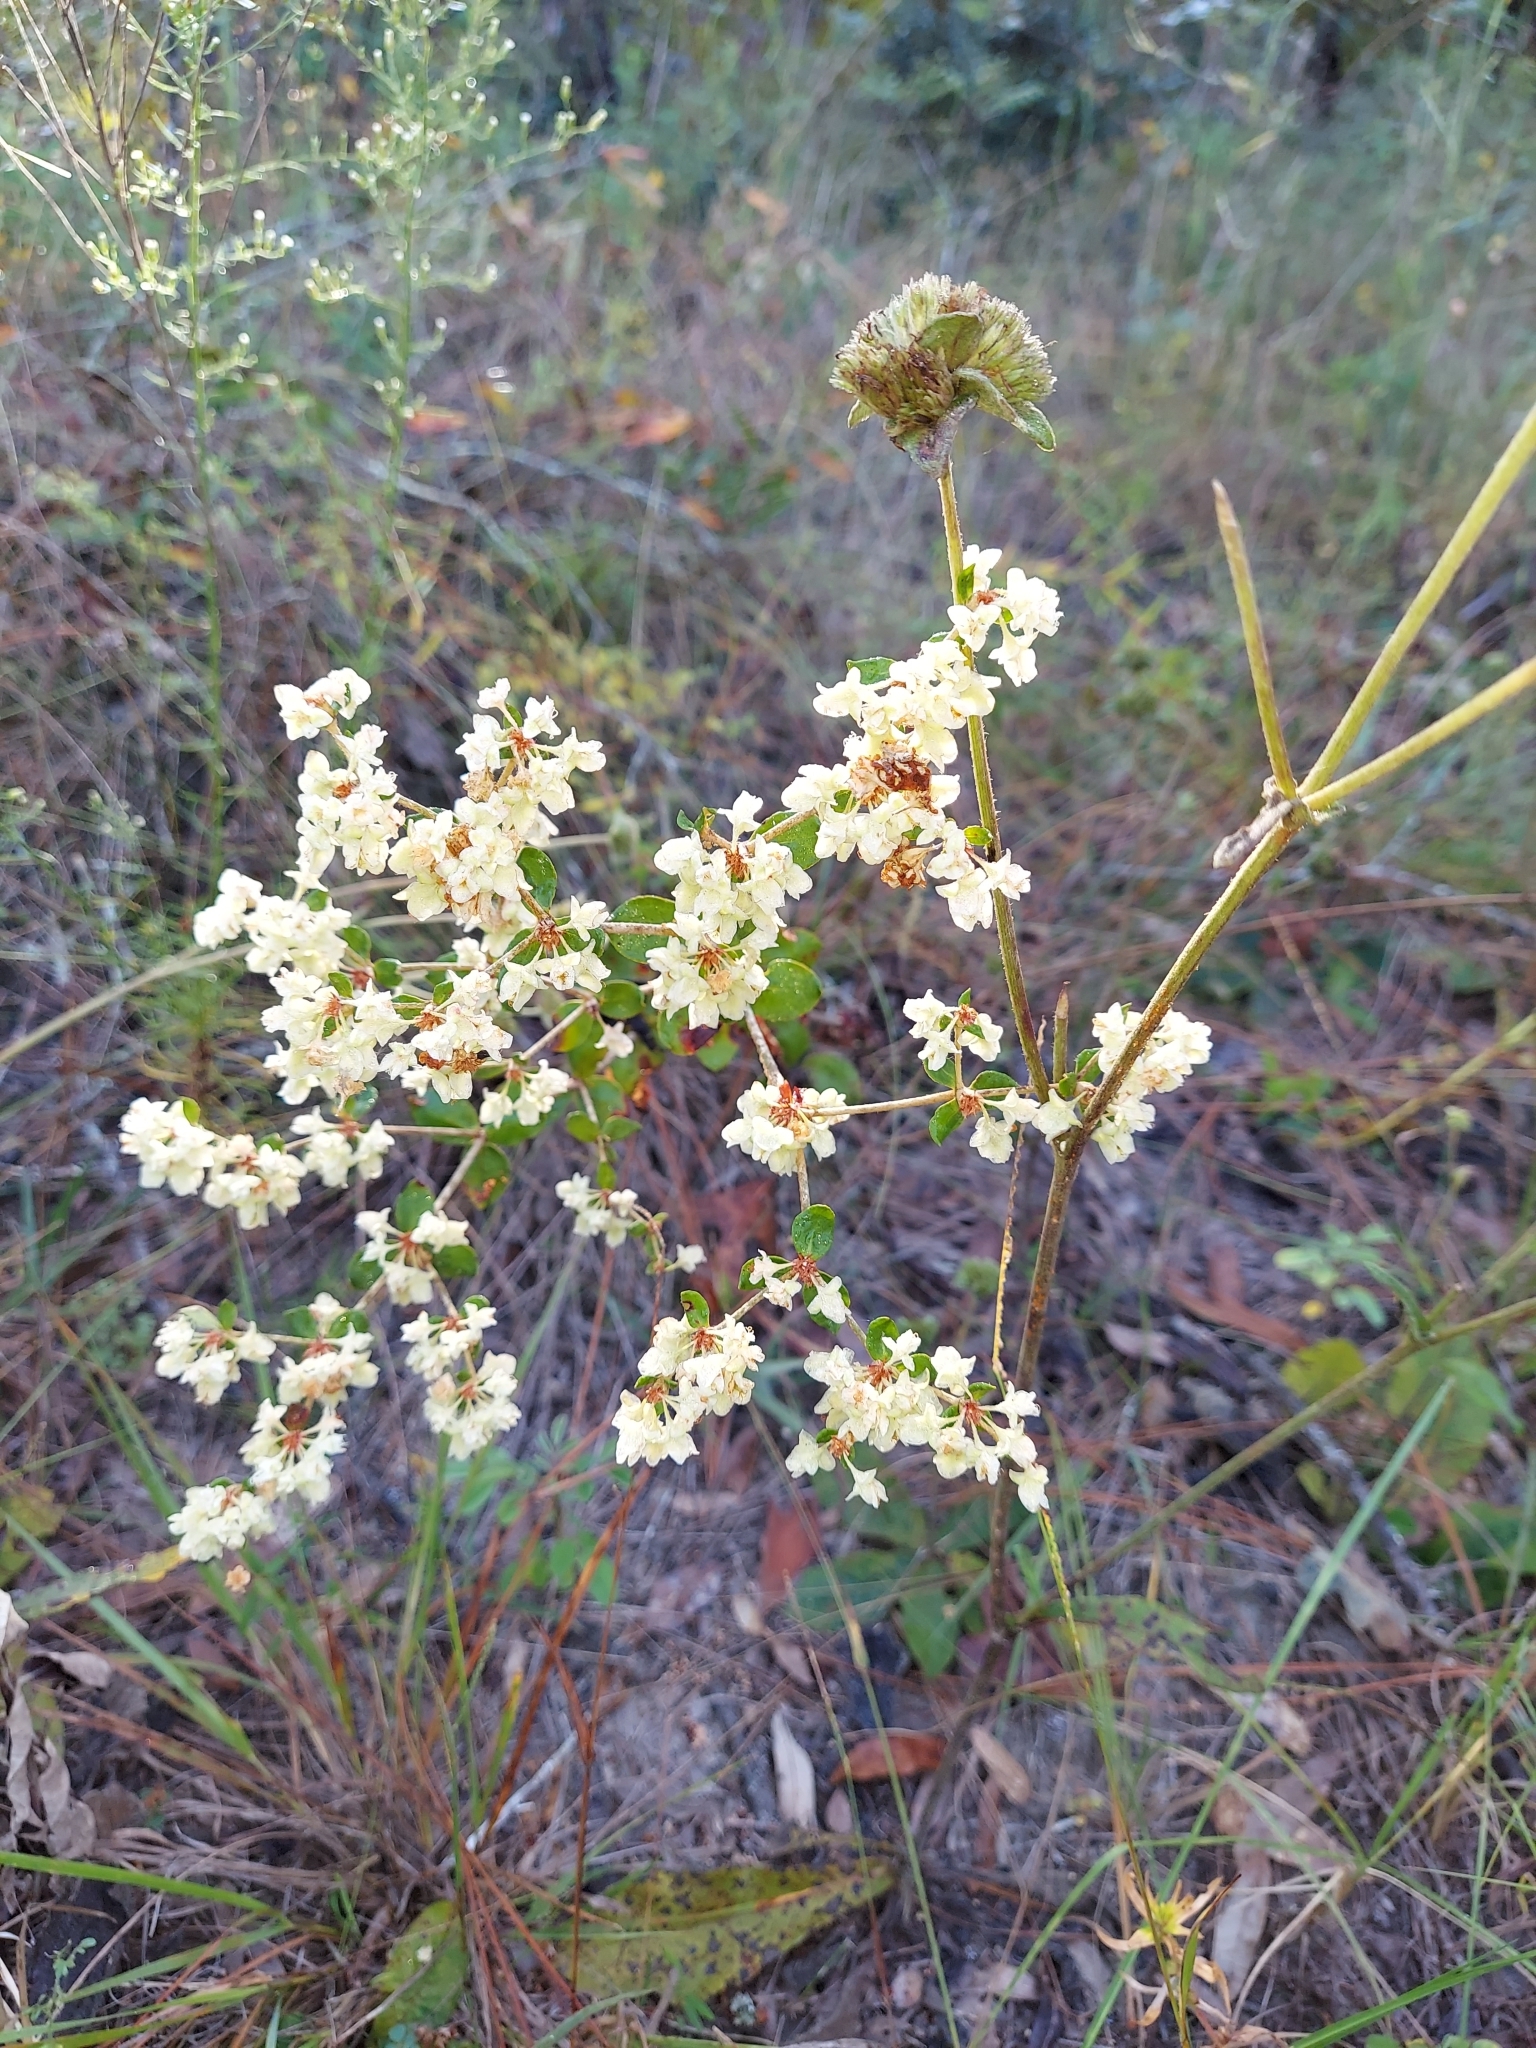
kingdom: Plantae
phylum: Tracheophyta
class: Magnoliopsida
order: Caryophyllales
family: Polygonaceae
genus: Eriogonum
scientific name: Eriogonum tomentosum
